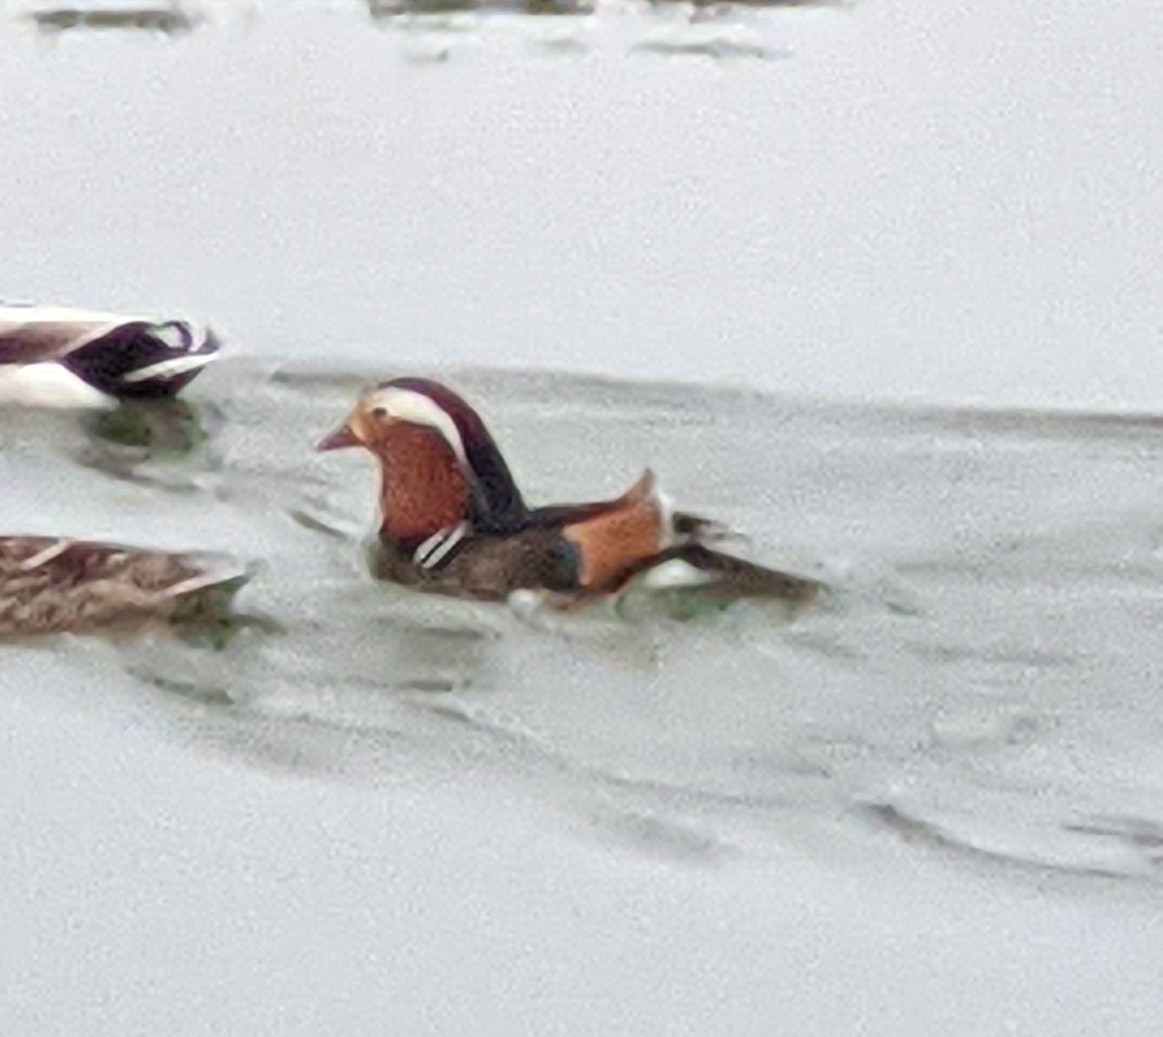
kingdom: Animalia
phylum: Chordata
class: Aves
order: Anseriformes
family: Anatidae
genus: Aix
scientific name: Aix galericulata
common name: Mandarin duck
